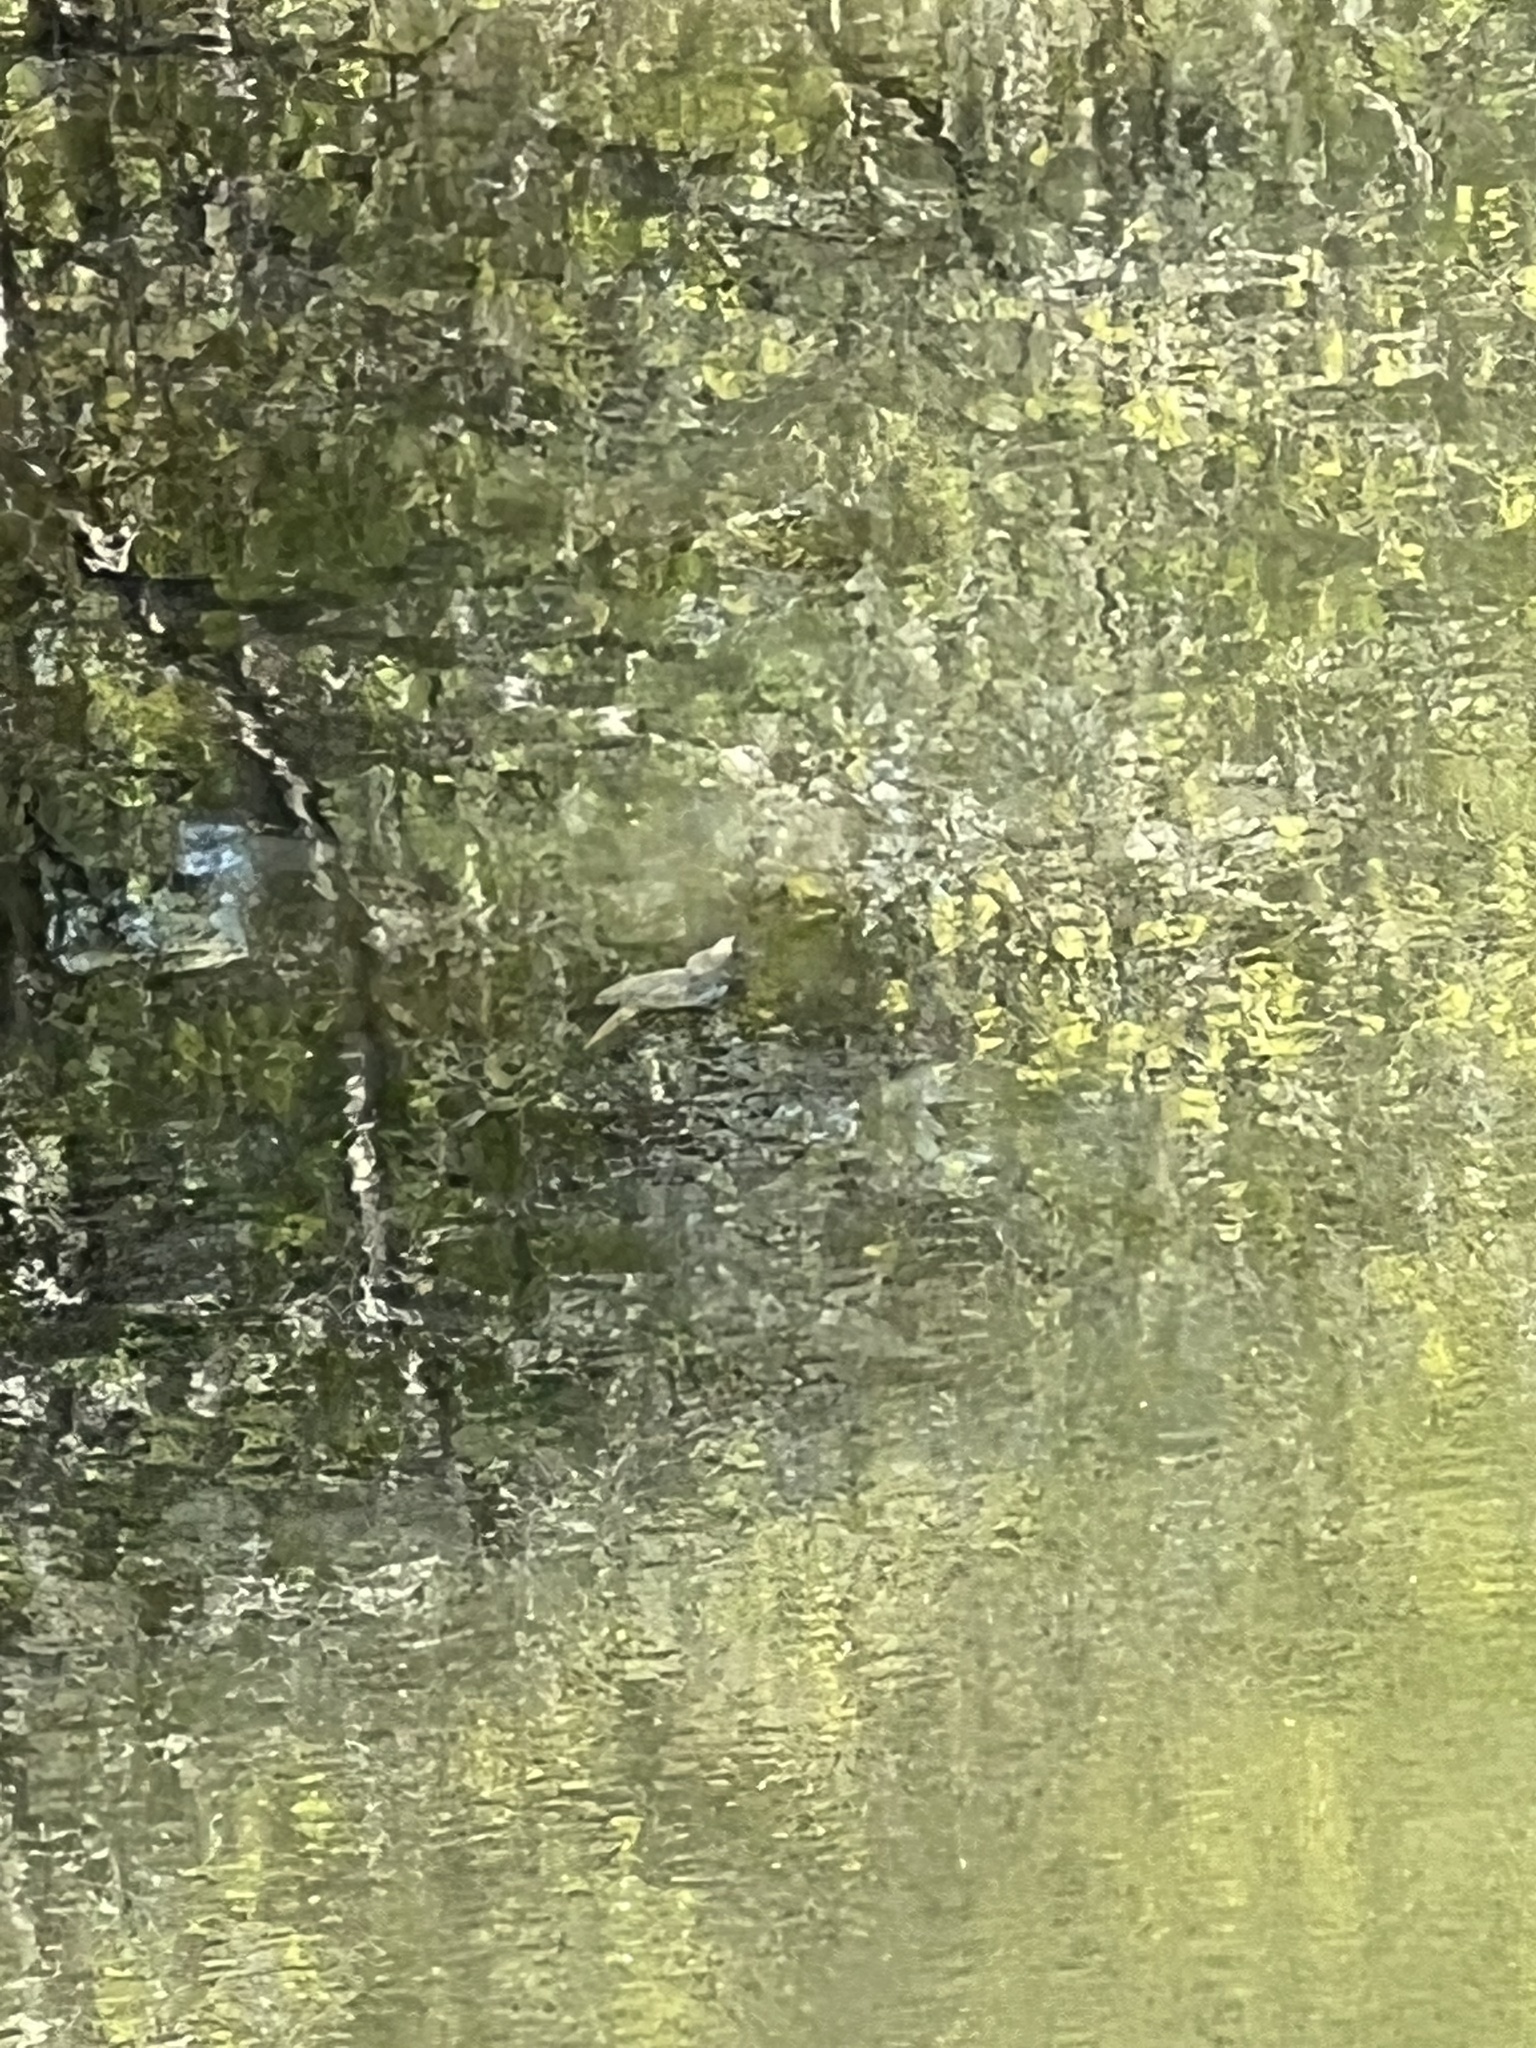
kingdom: Animalia
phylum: Chordata
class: Testudines
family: Chelydridae
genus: Chelydra
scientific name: Chelydra serpentina
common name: Common snapping turtle
